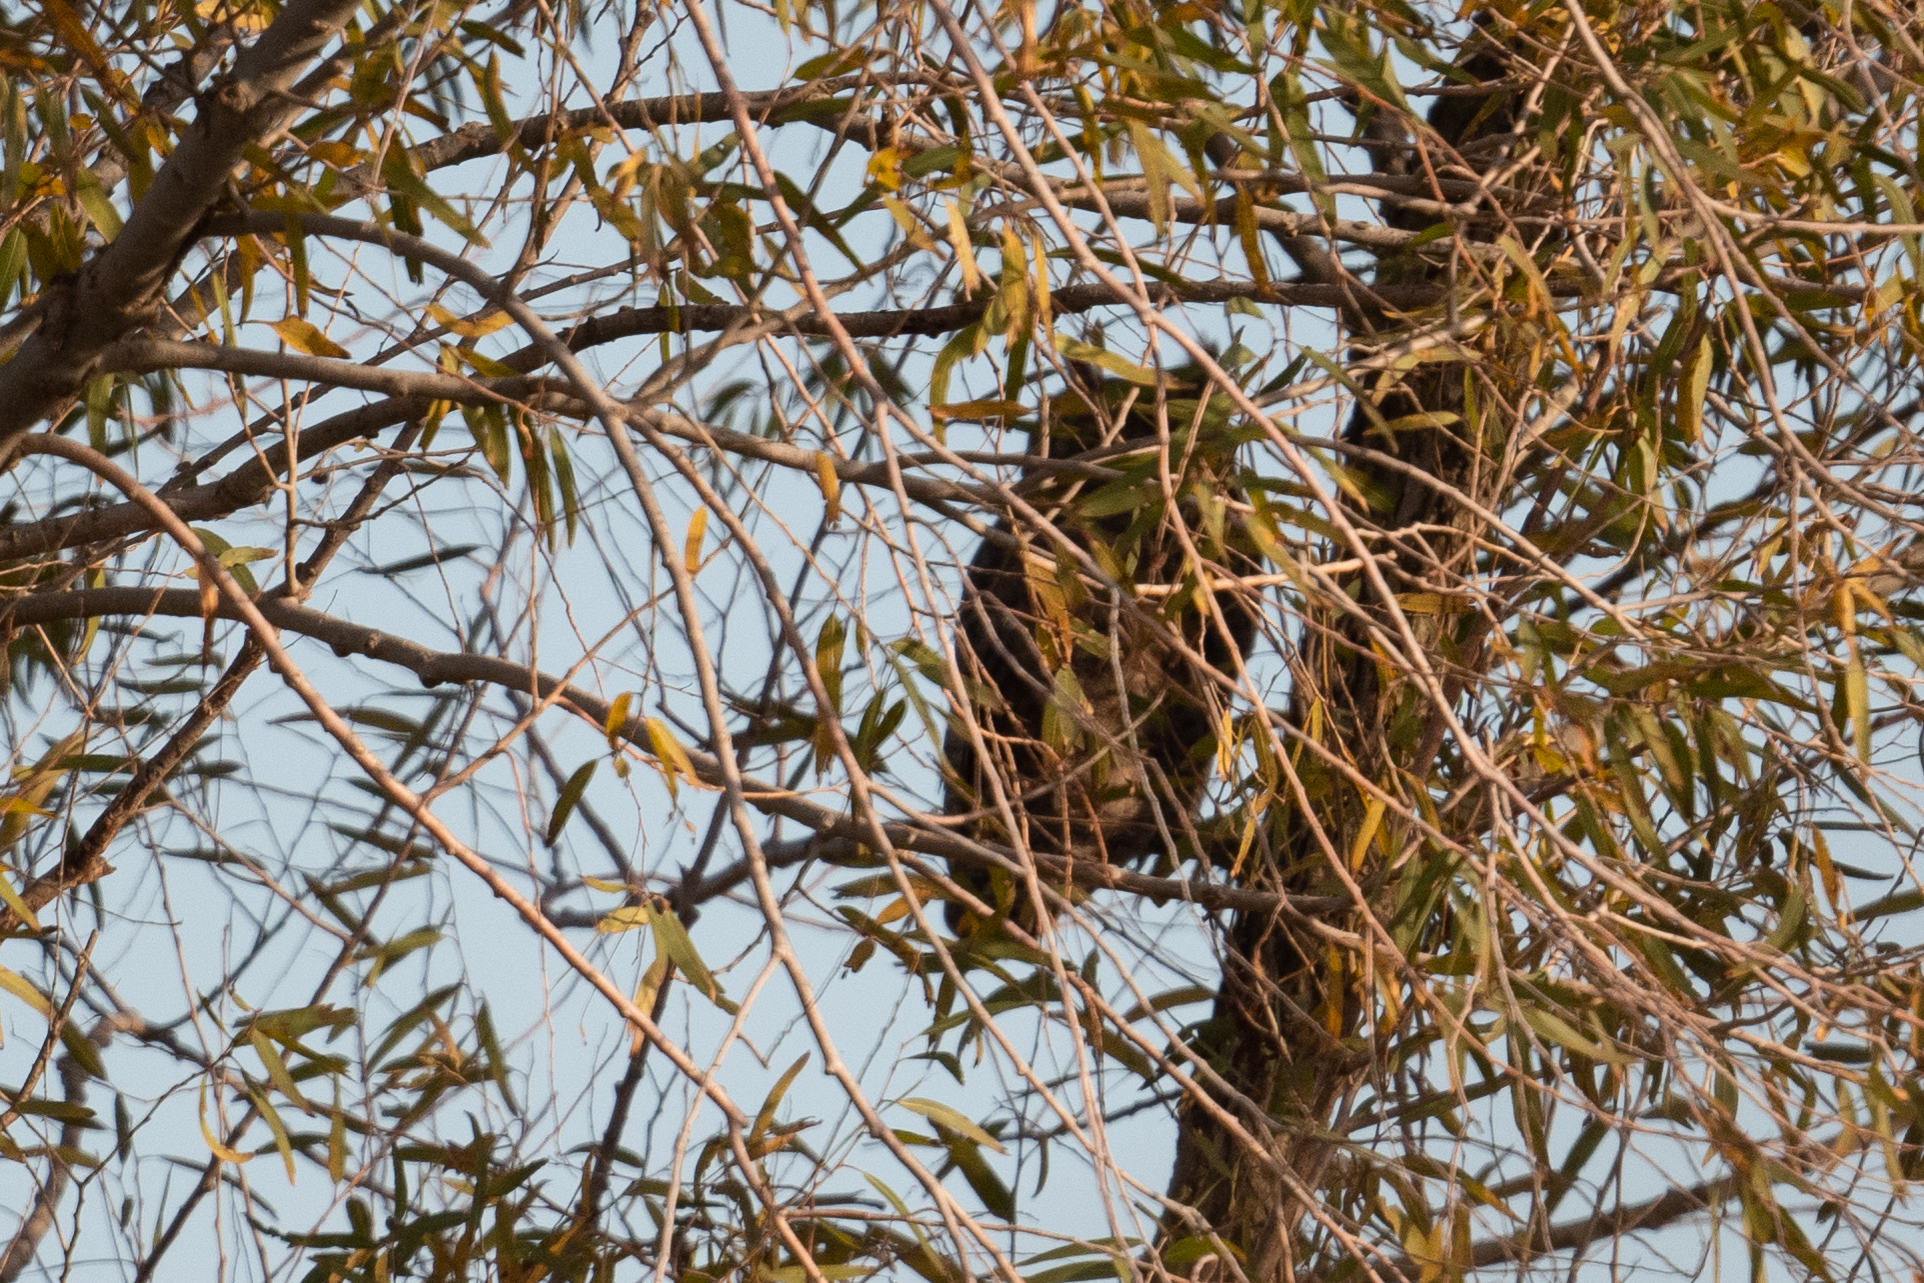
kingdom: Animalia
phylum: Chordata
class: Aves
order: Strigiformes
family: Strigidae
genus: Bubo
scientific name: Bubo virginianus
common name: Great horned owl
